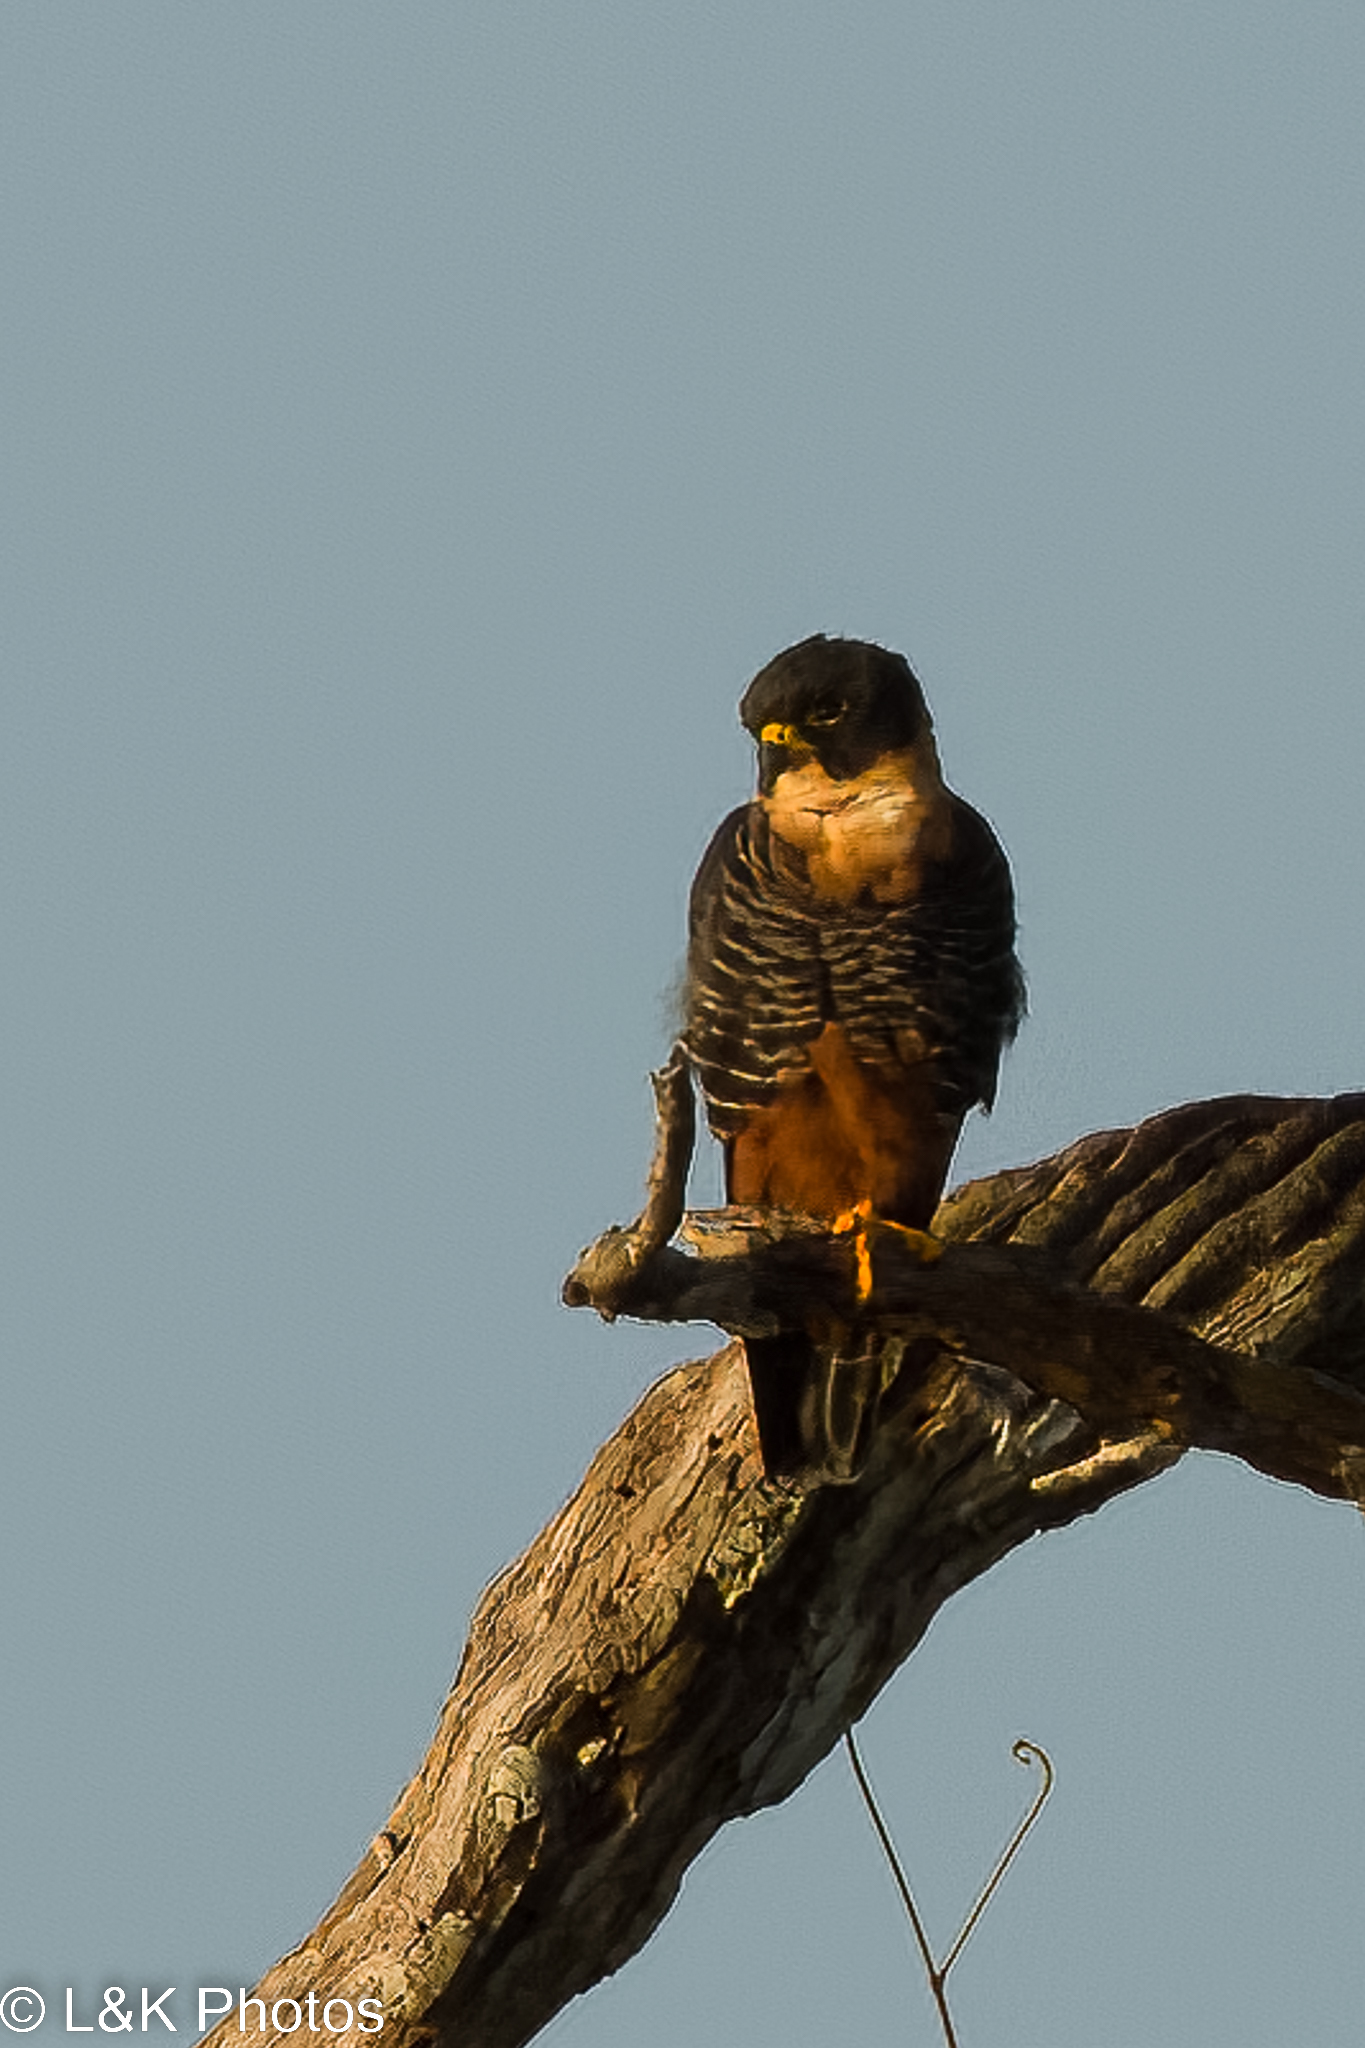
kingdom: Animalia
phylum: Chordata
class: Aves
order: Falconiformes
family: Falconidae
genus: Falco
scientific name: Falco rufigularis
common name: Bat falcon
